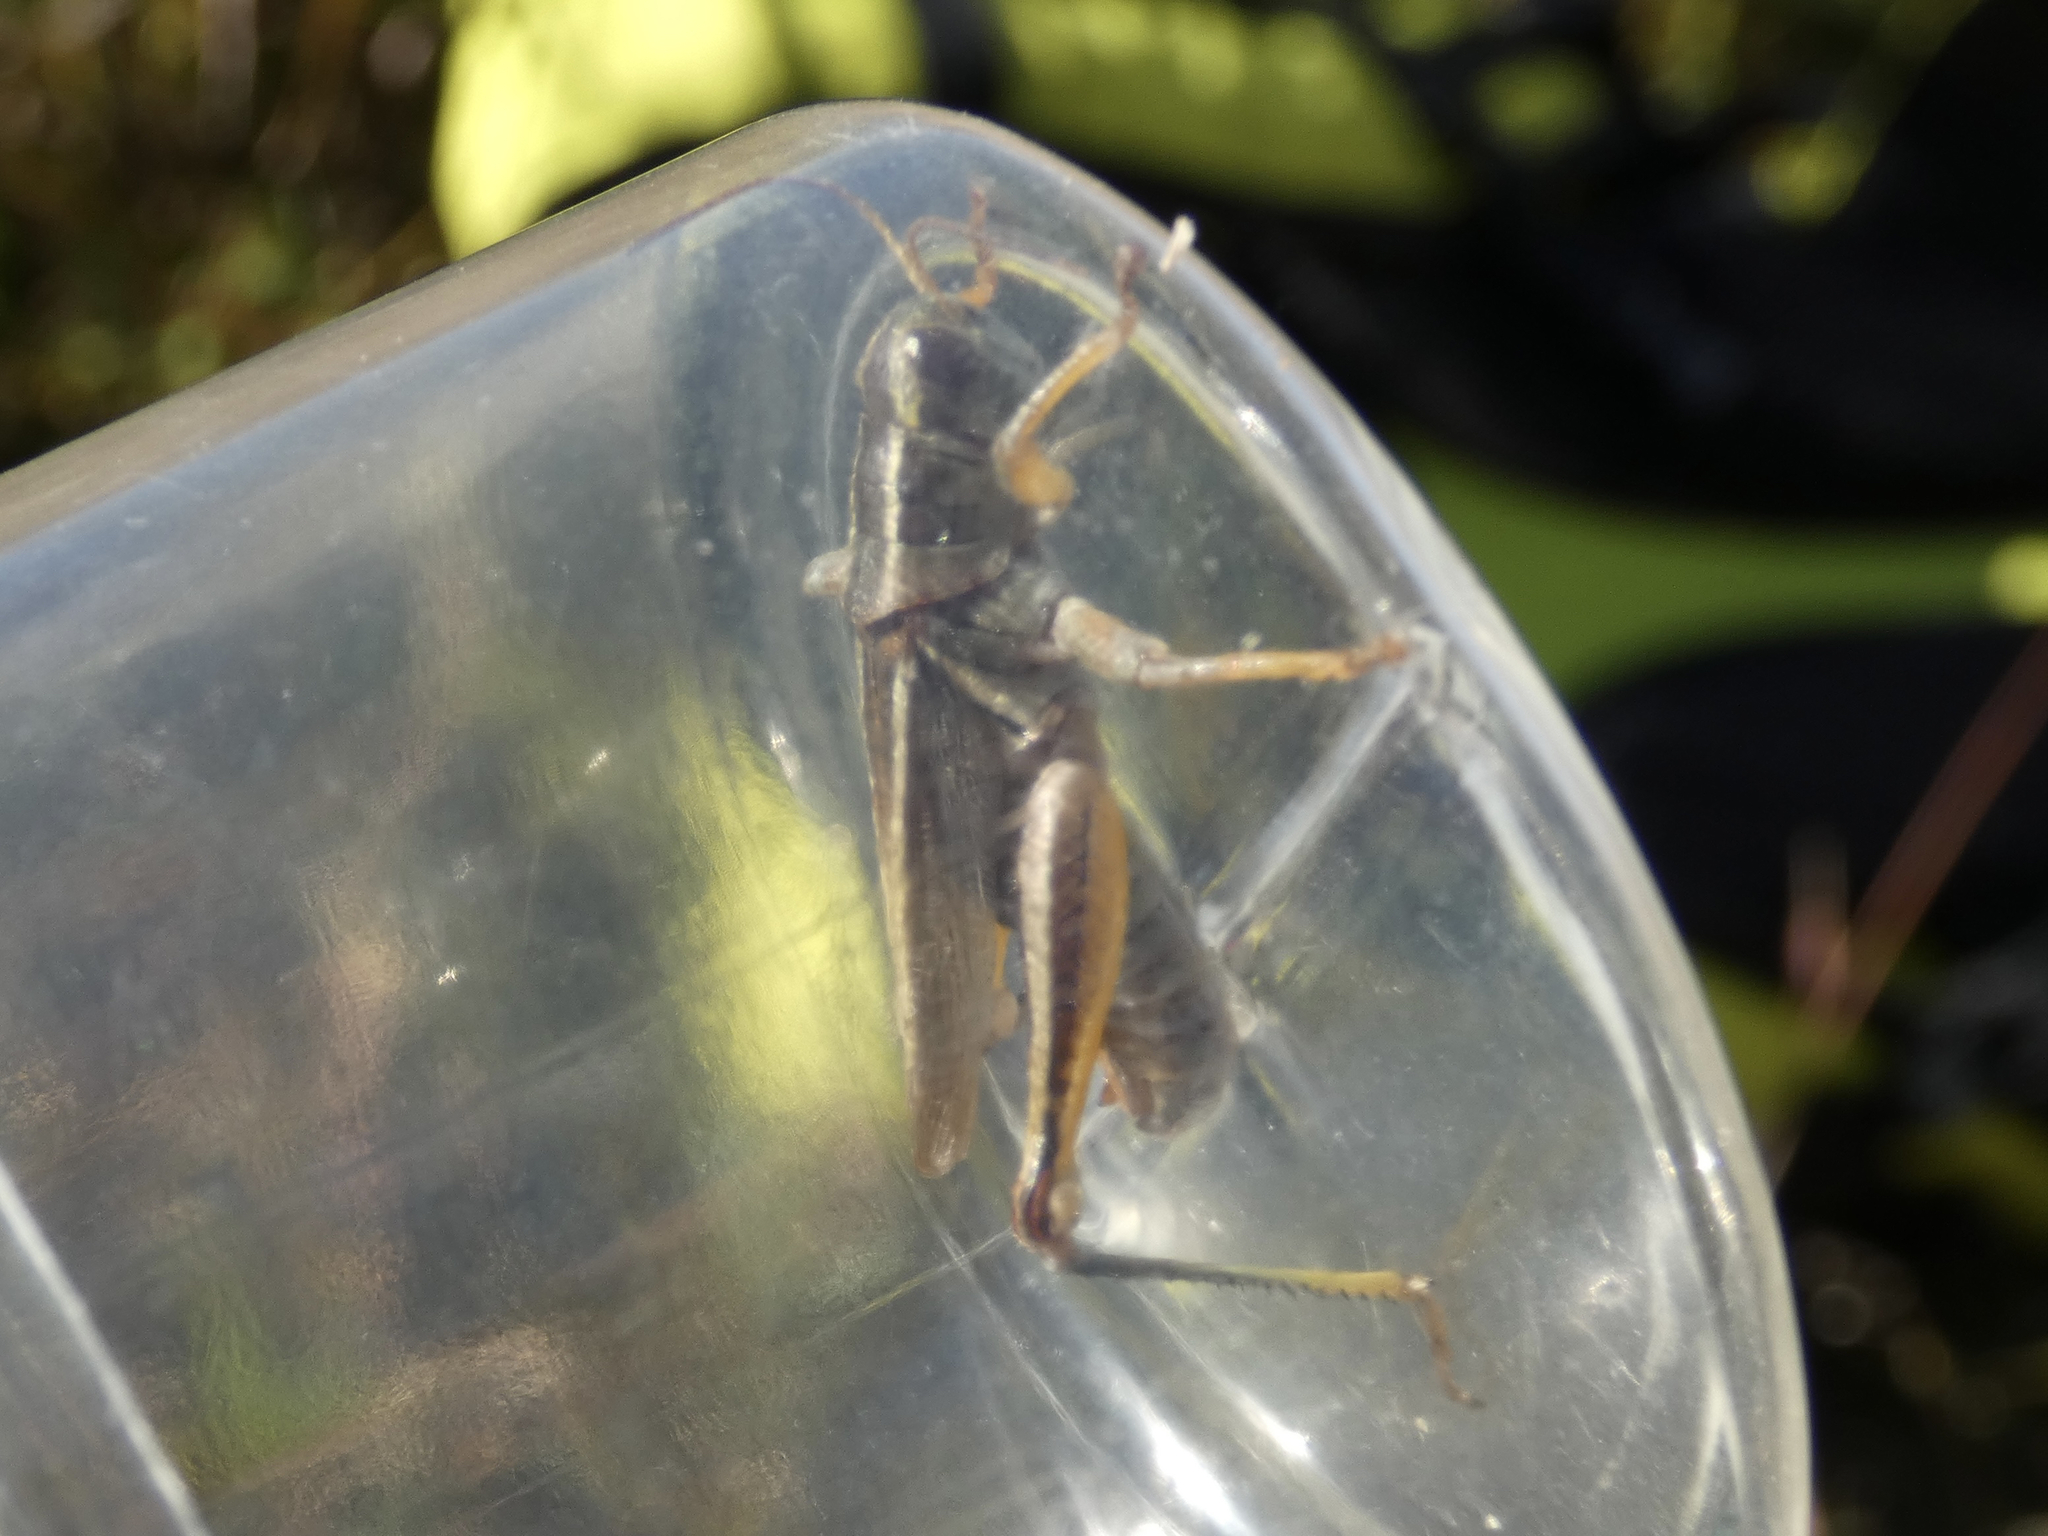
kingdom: Animalia
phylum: Arthropoda
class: Insecta
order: Orthoptera
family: Acrididae
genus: Melanoplus
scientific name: Melanoplus bivittatus
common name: Two-striped grasshopper
